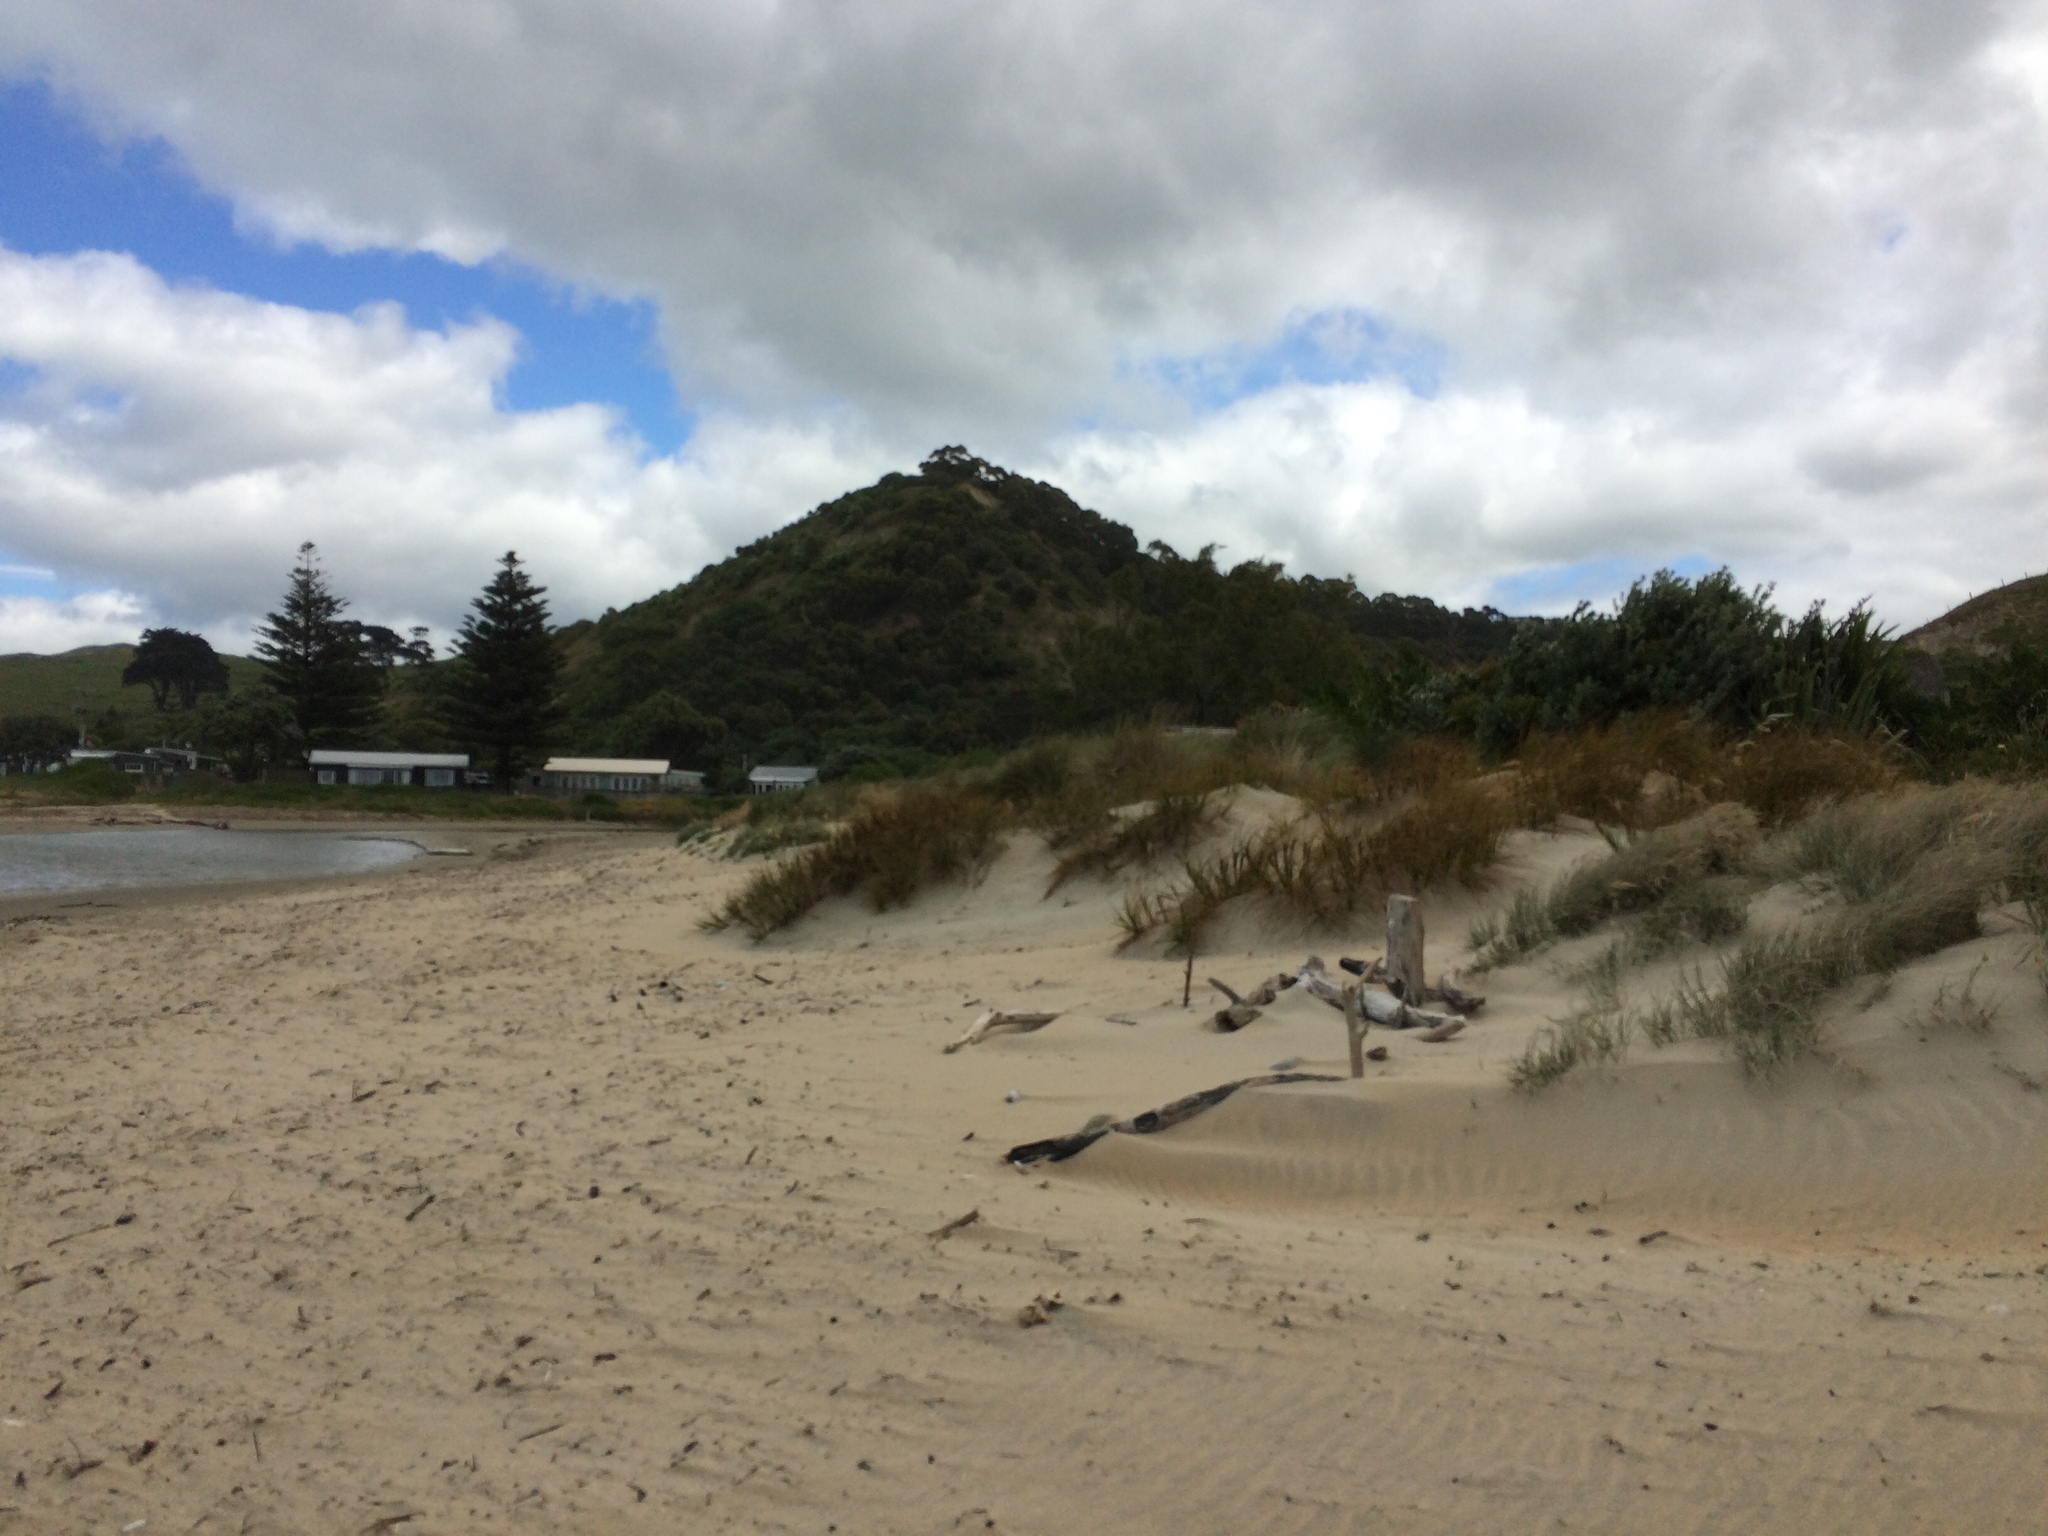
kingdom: Plantae
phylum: Tracheophyta
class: Liliopsida
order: Poales
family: Cyperaceae
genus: Ficinia
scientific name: Ficinia spiralis
